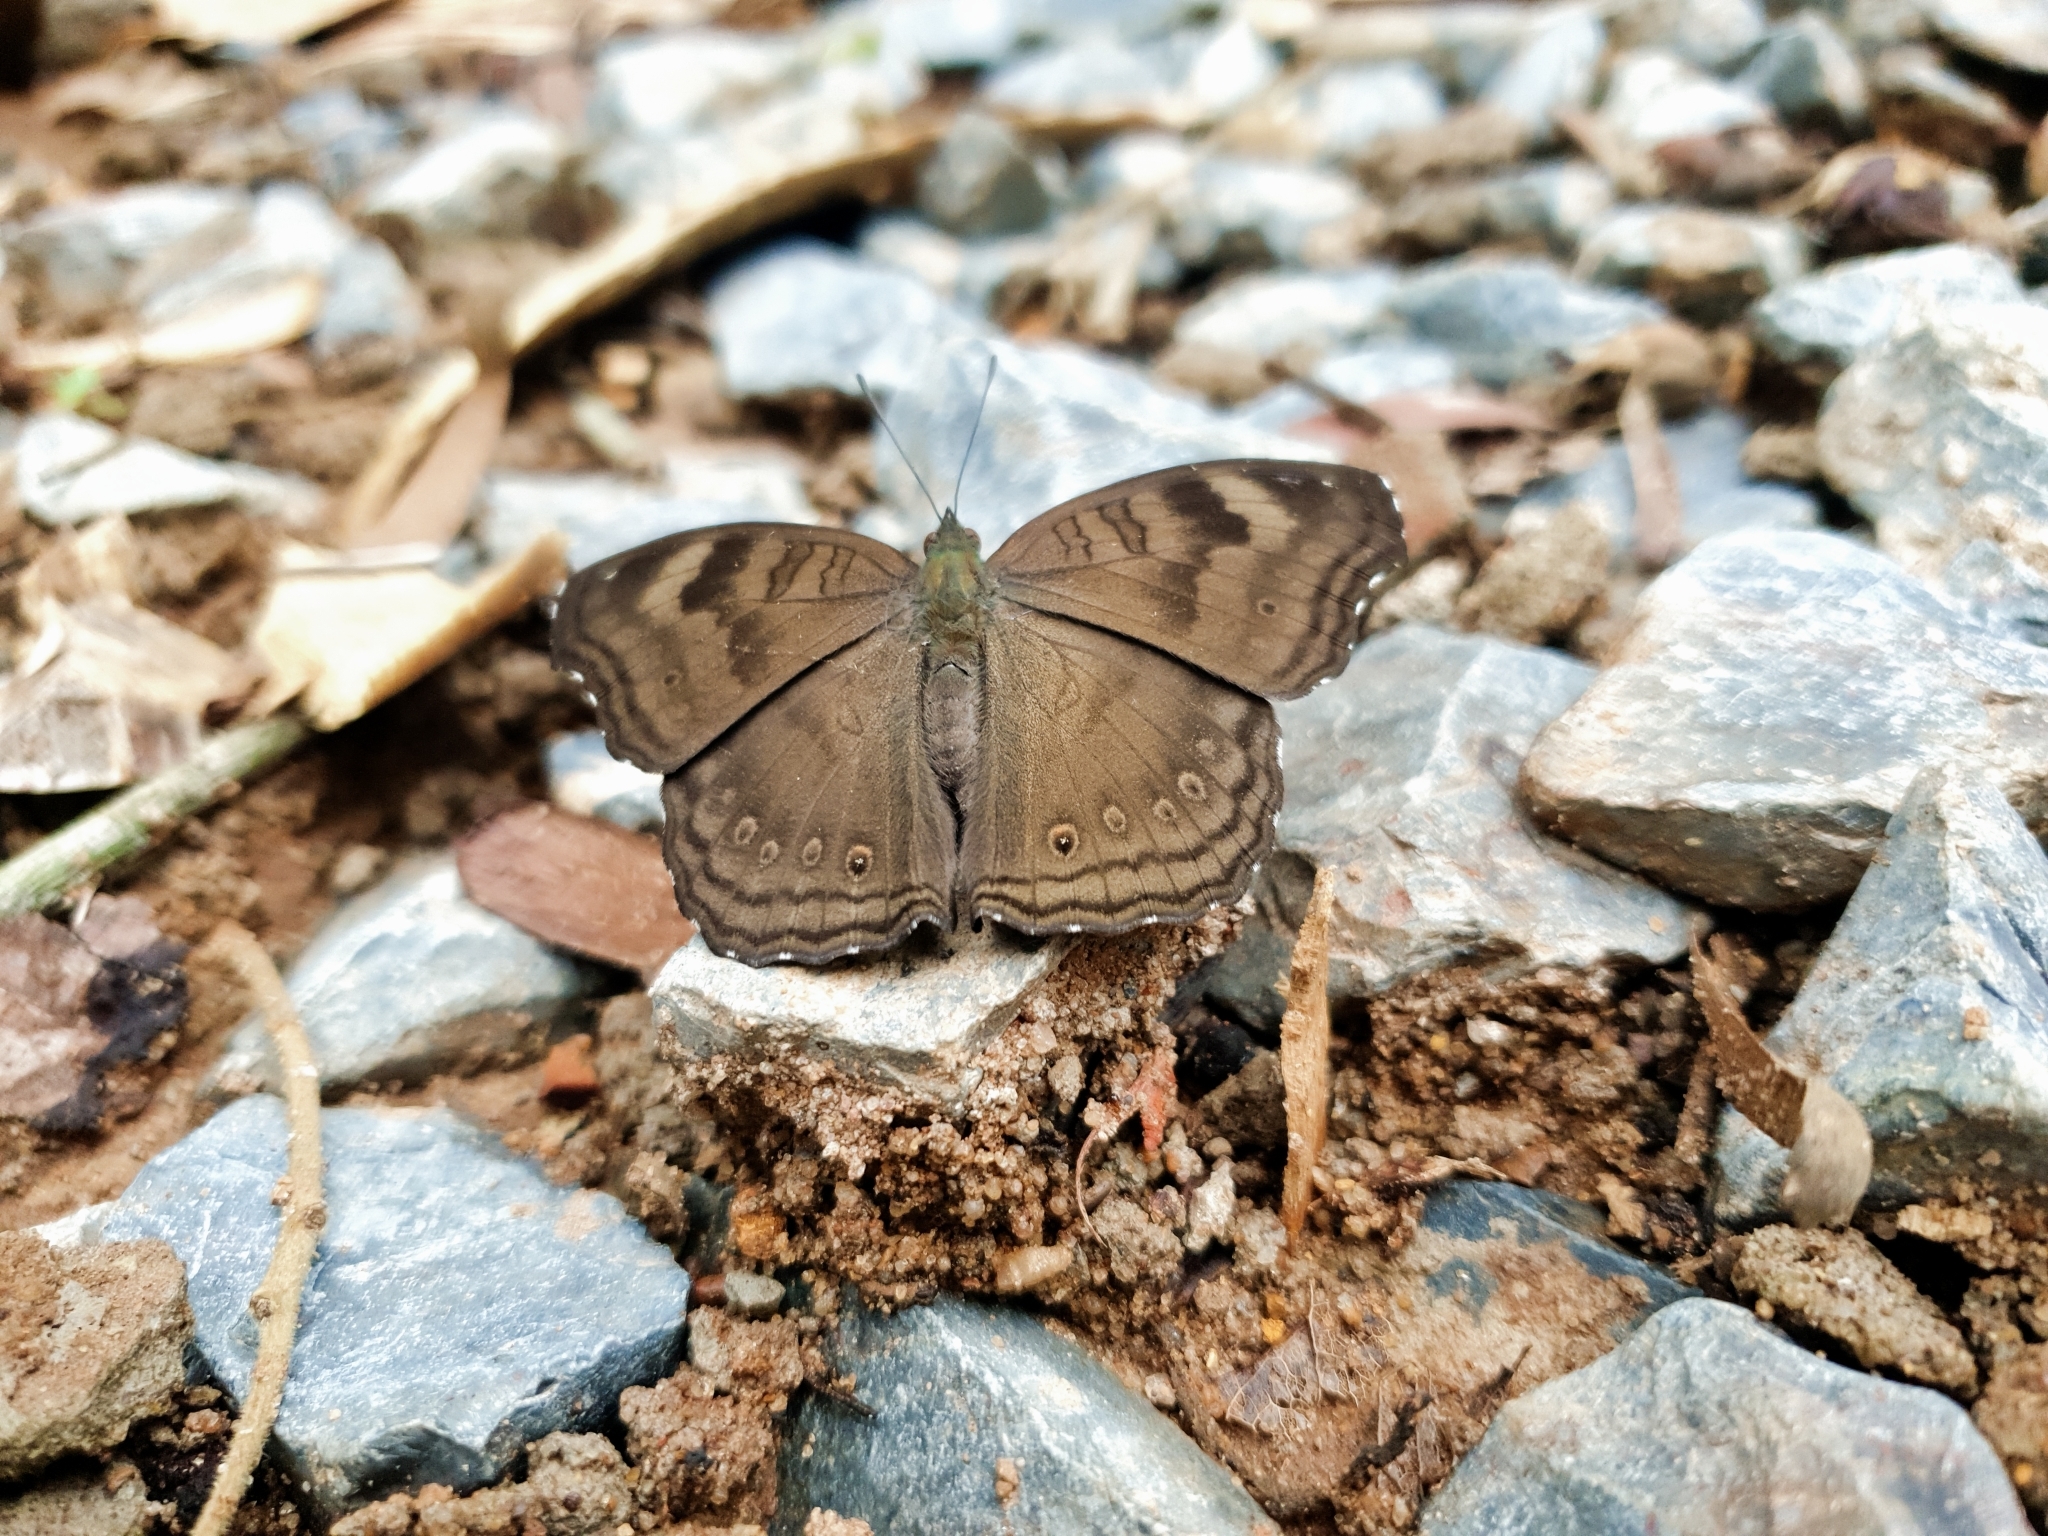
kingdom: Animalia
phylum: Arthropoda
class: Insecta
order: Lepidoptera
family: Nymphalidae
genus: Junonia
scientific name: Junonia iphita
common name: Chocolate pansy
